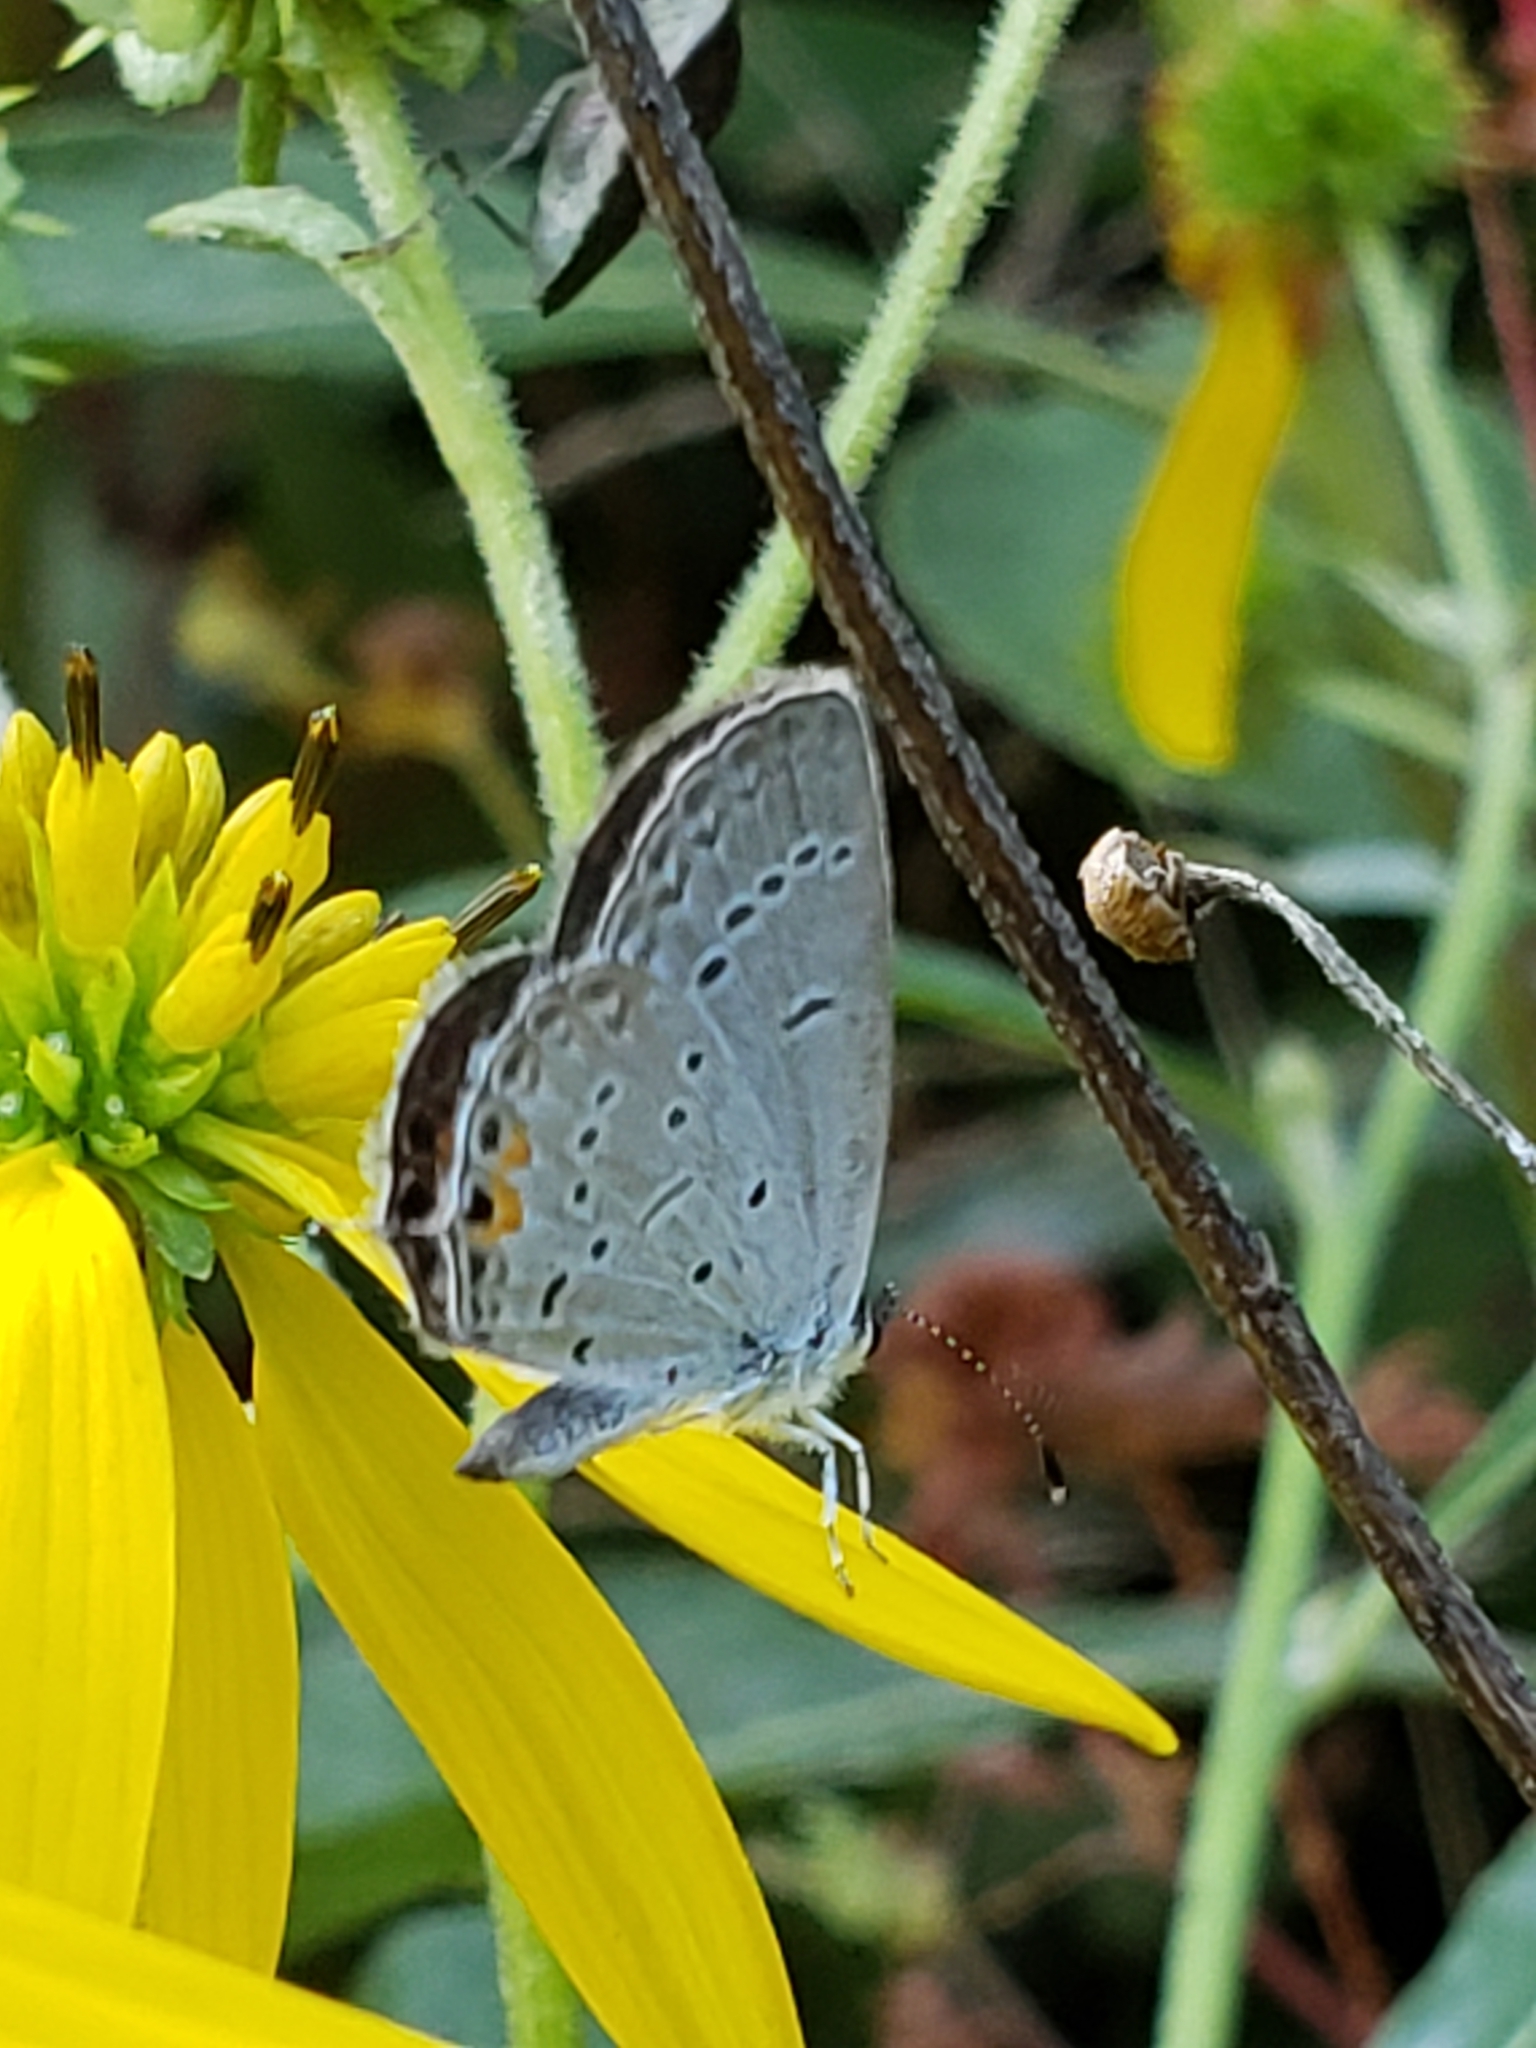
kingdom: Animalia
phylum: Arthropoda
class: Insecta
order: Lepidoptera
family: Lycaenidae
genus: Elkalyce
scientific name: Elkalyce comyntas
